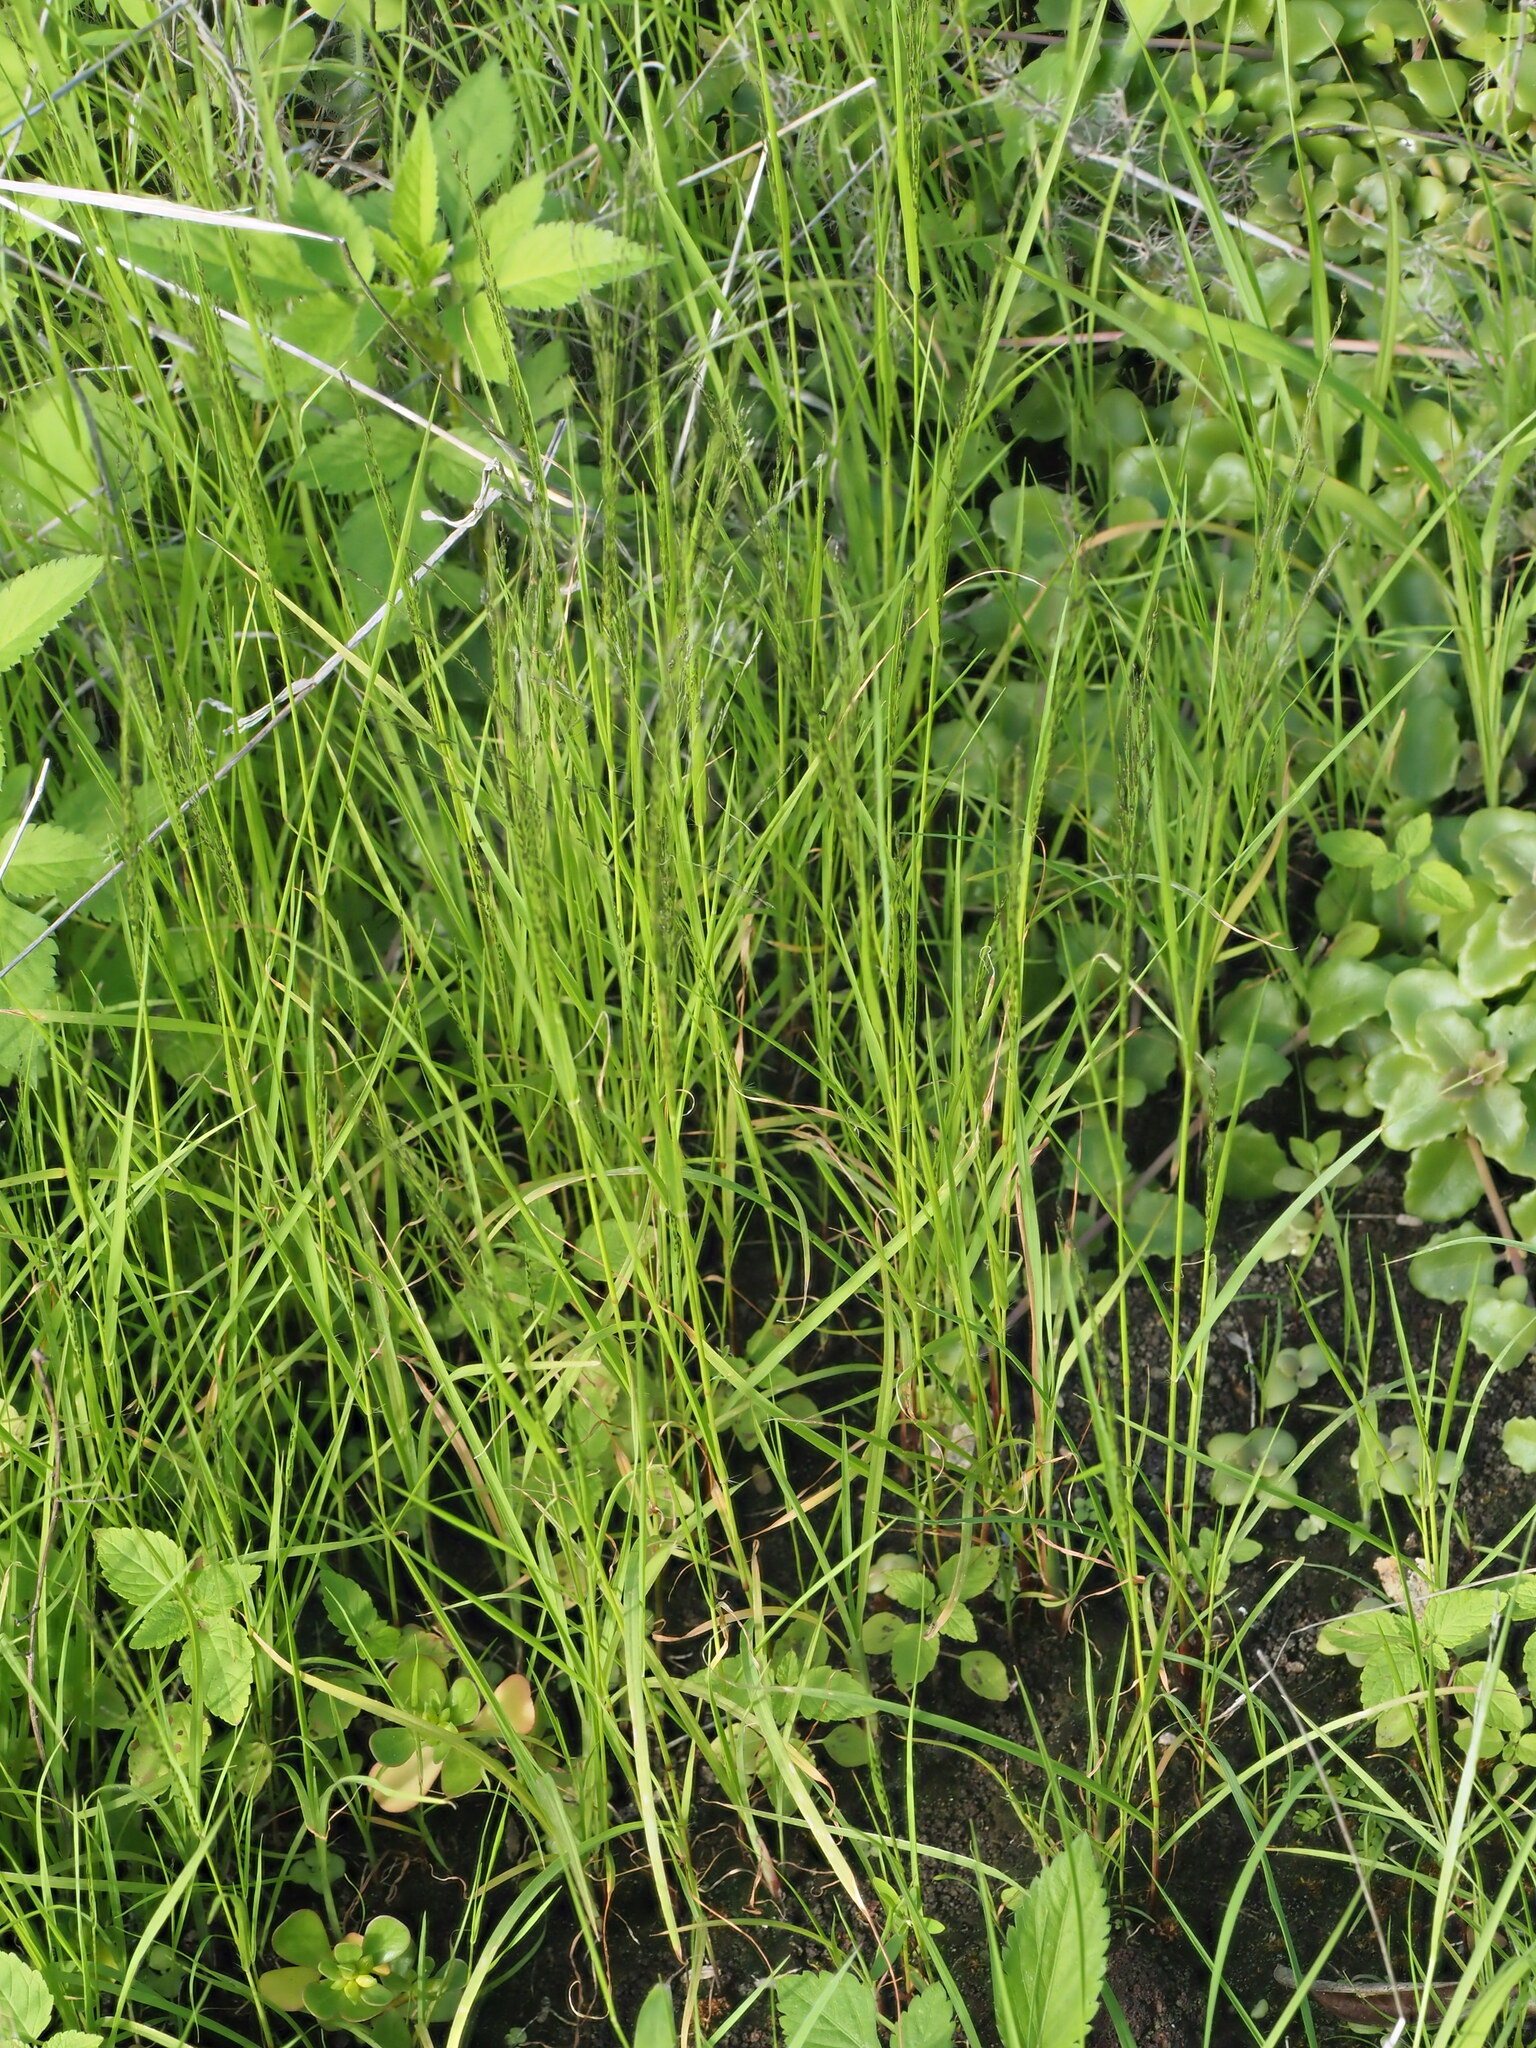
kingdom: Plantae
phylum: Tracheophyta
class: Liliopsida
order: Poales
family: Poaceae
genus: Eragrostis
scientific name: Eragrostis pilosa
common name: Indian lovegrass
